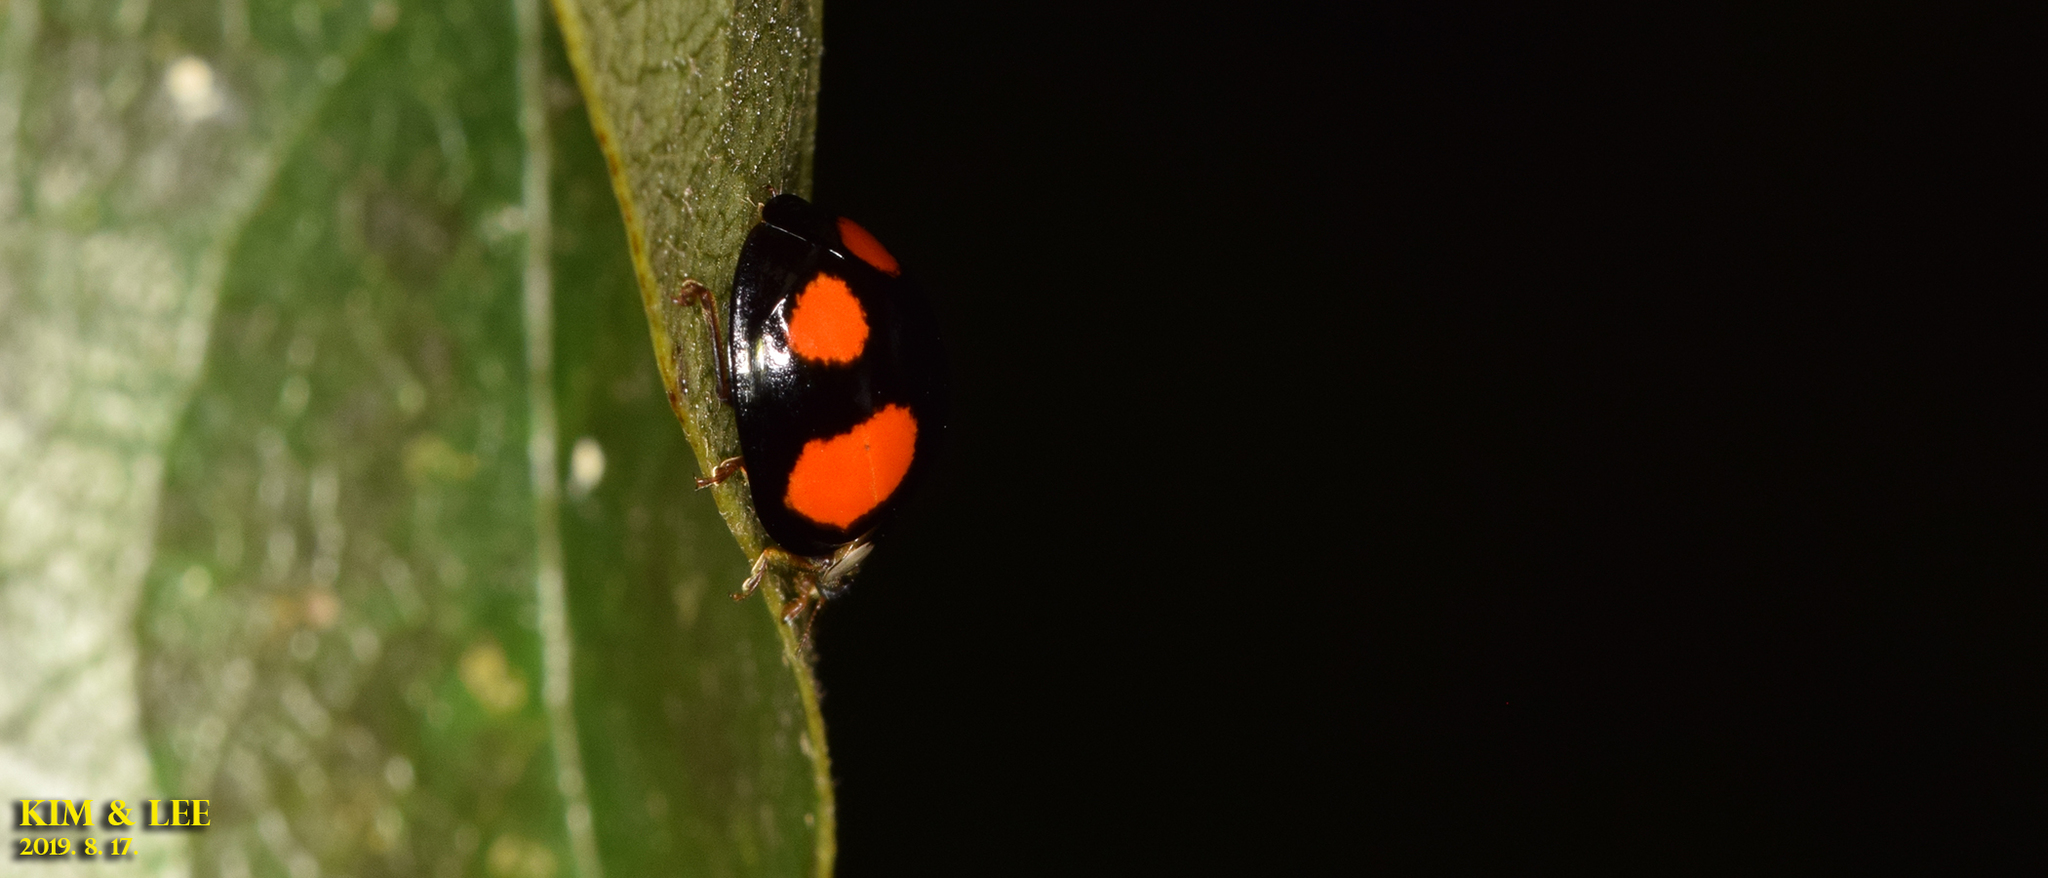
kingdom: Animalia
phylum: Arthropoda
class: Insecta
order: Coleoptera
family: Coccinellidae
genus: Harmonia
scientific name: Harmonia axyridis
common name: Harlequin ladybird
